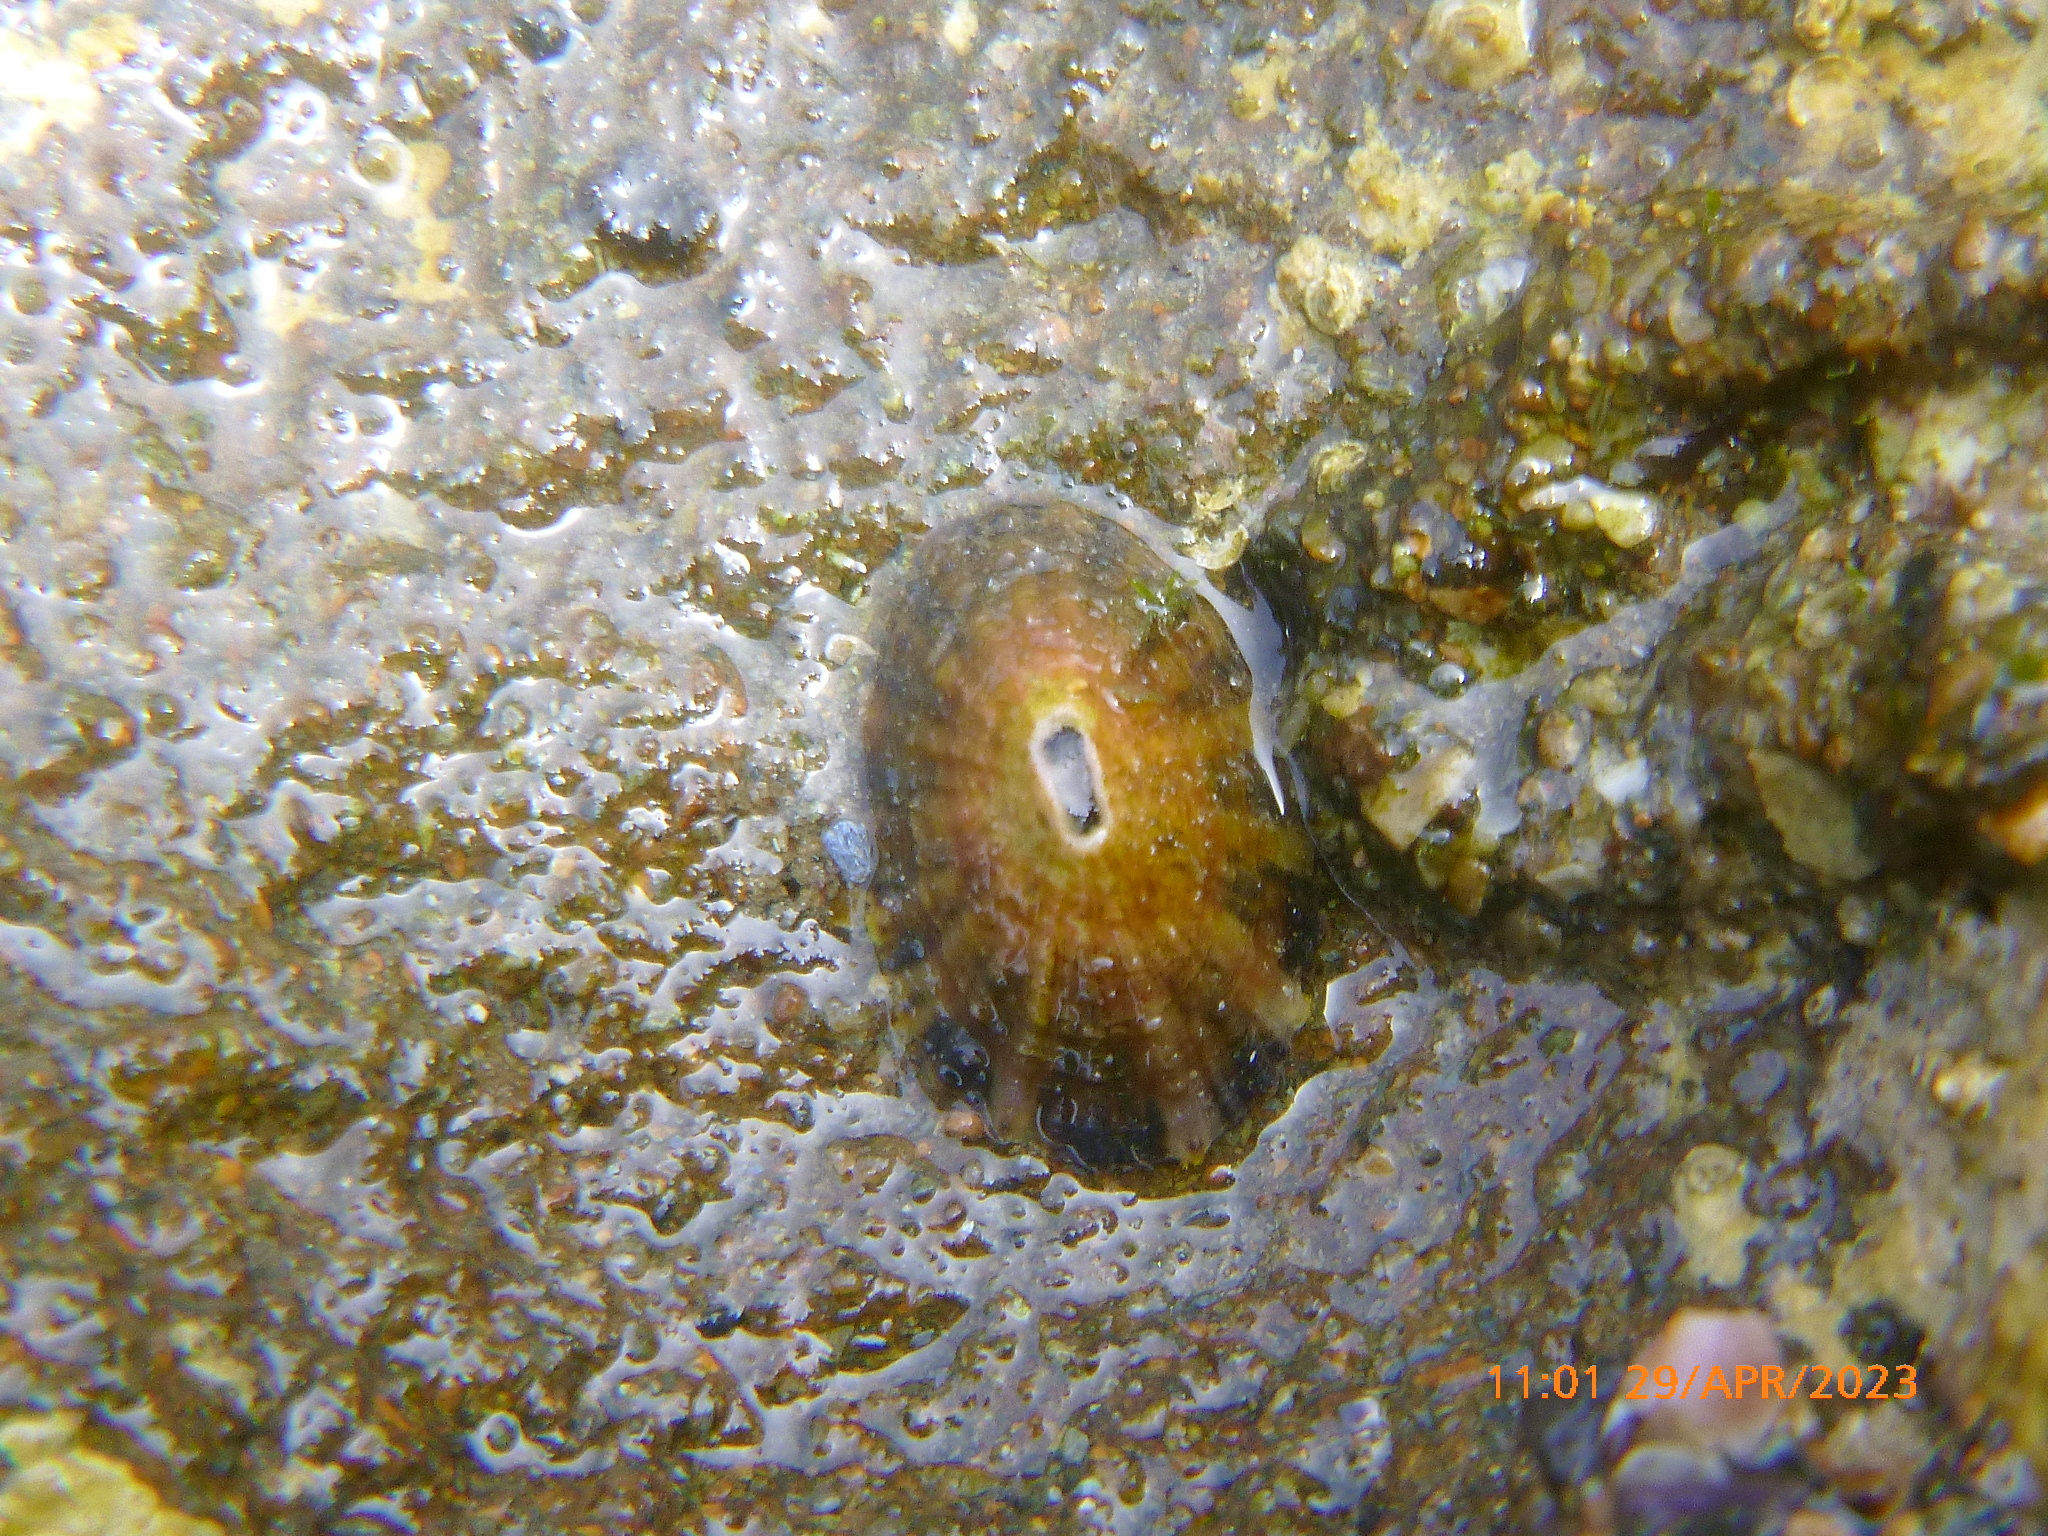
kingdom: Animalia
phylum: Mollusca
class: Gastropoda
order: Lepetellida
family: Fissurellidae
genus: Fissurella
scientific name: Fissurella volcano
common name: Volcano keyhole limpet
